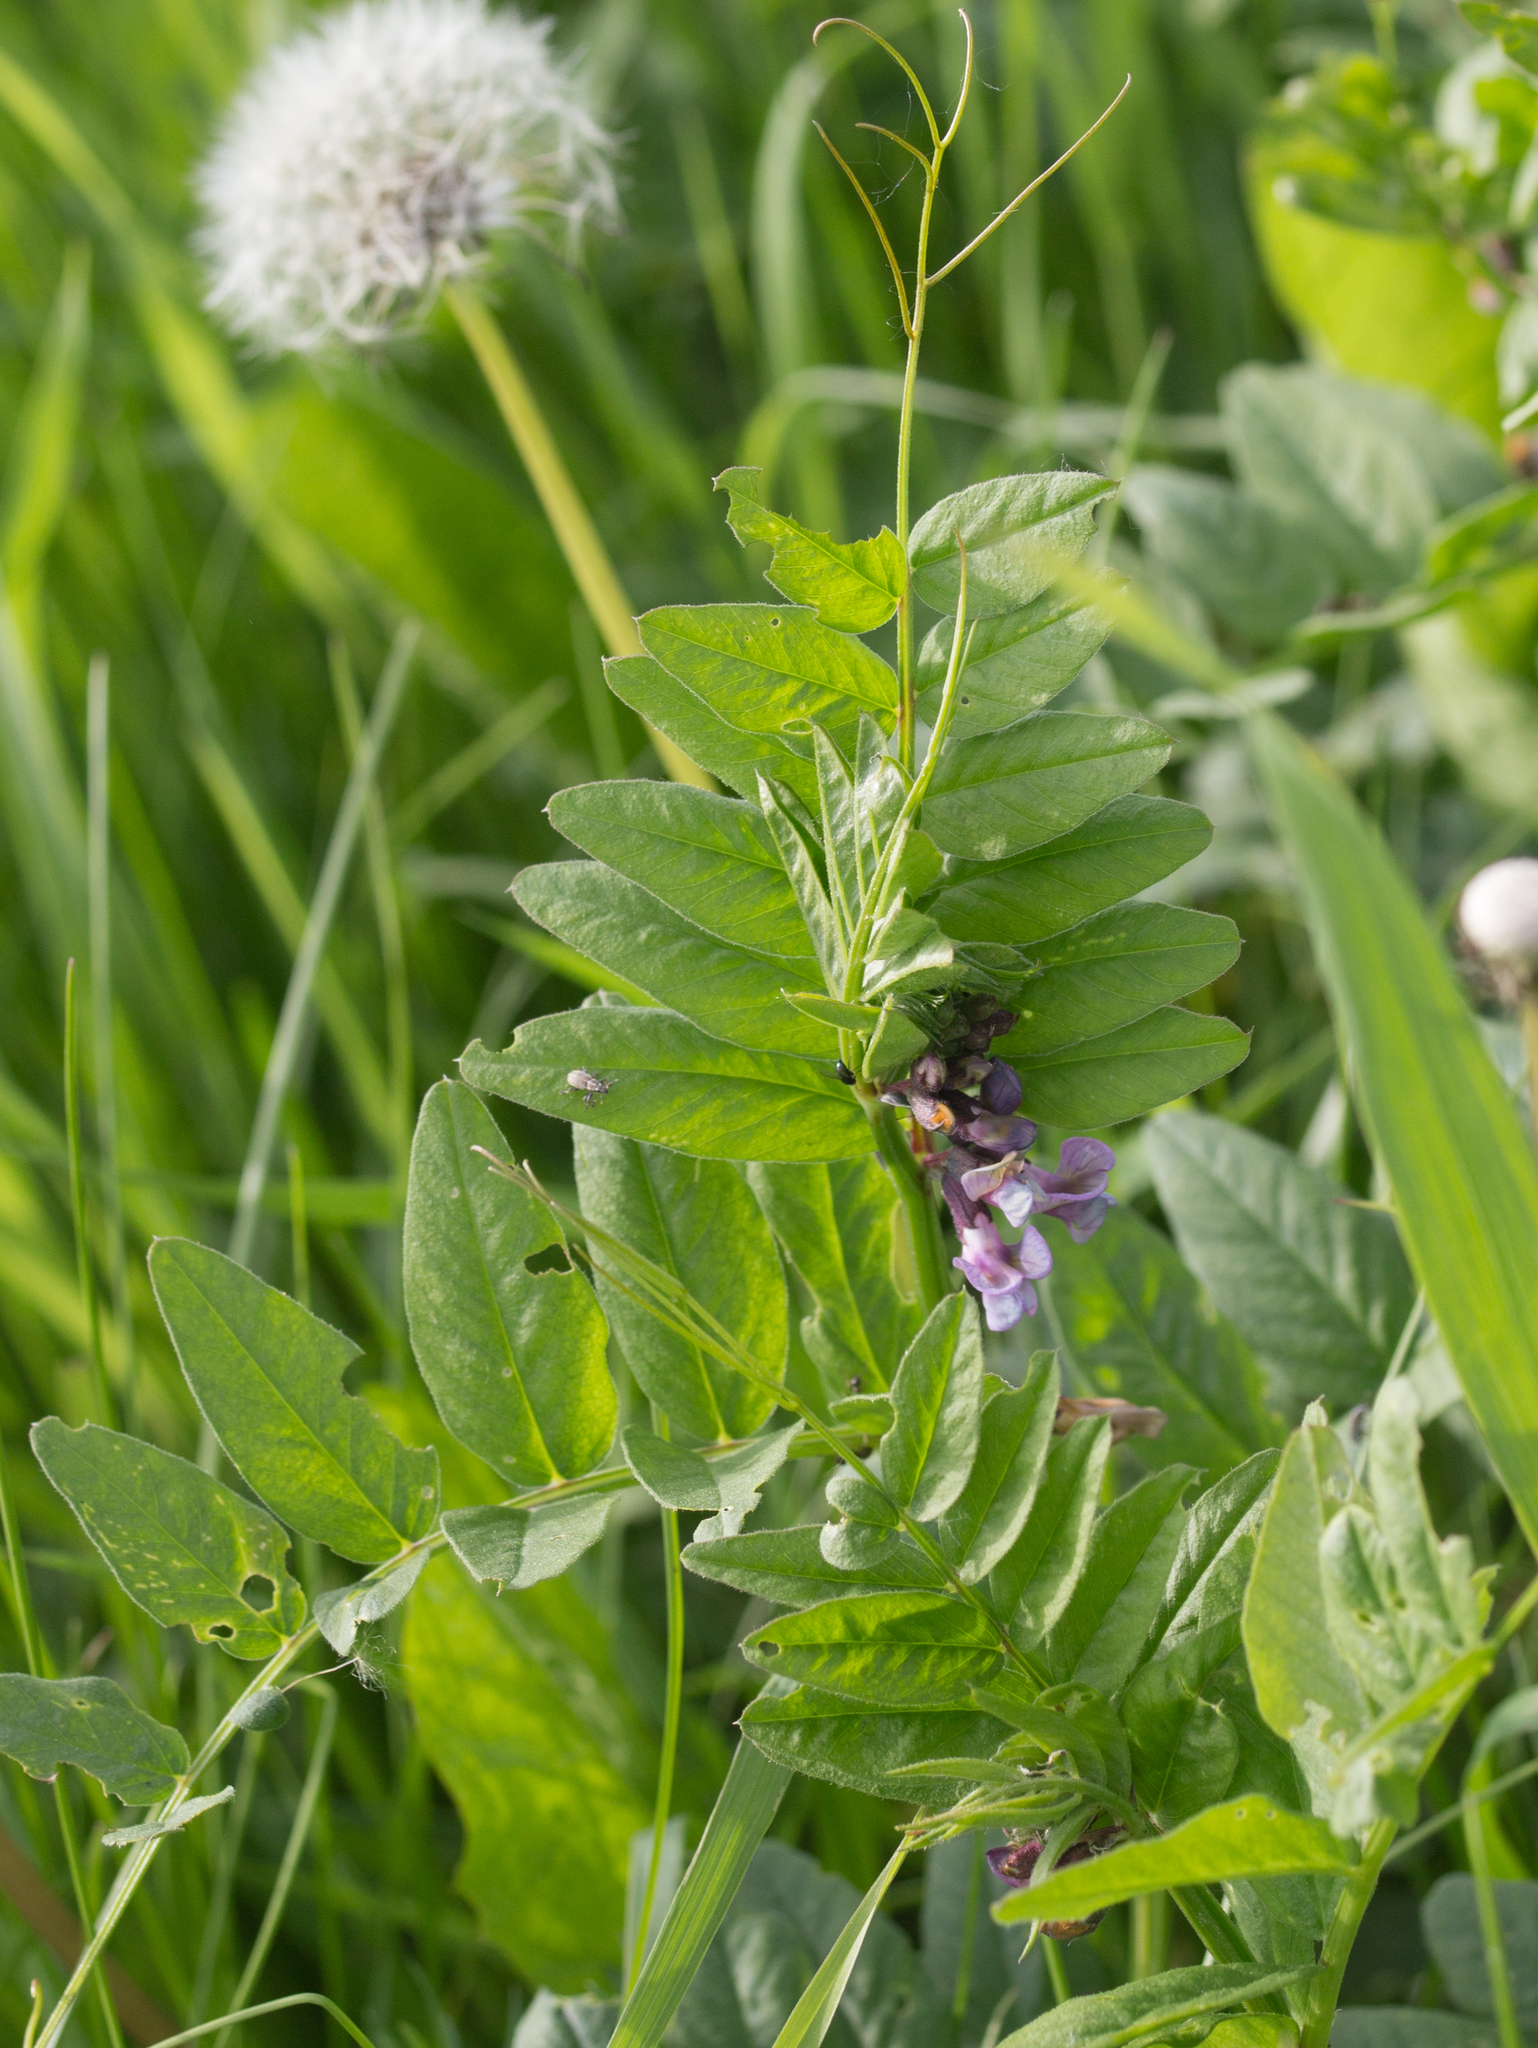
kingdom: Plantae
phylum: Tracheophyta
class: Magnoliopsida
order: Fabales
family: Fabaceae
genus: Vicia
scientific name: Vicia sepium
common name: Bush vetch
